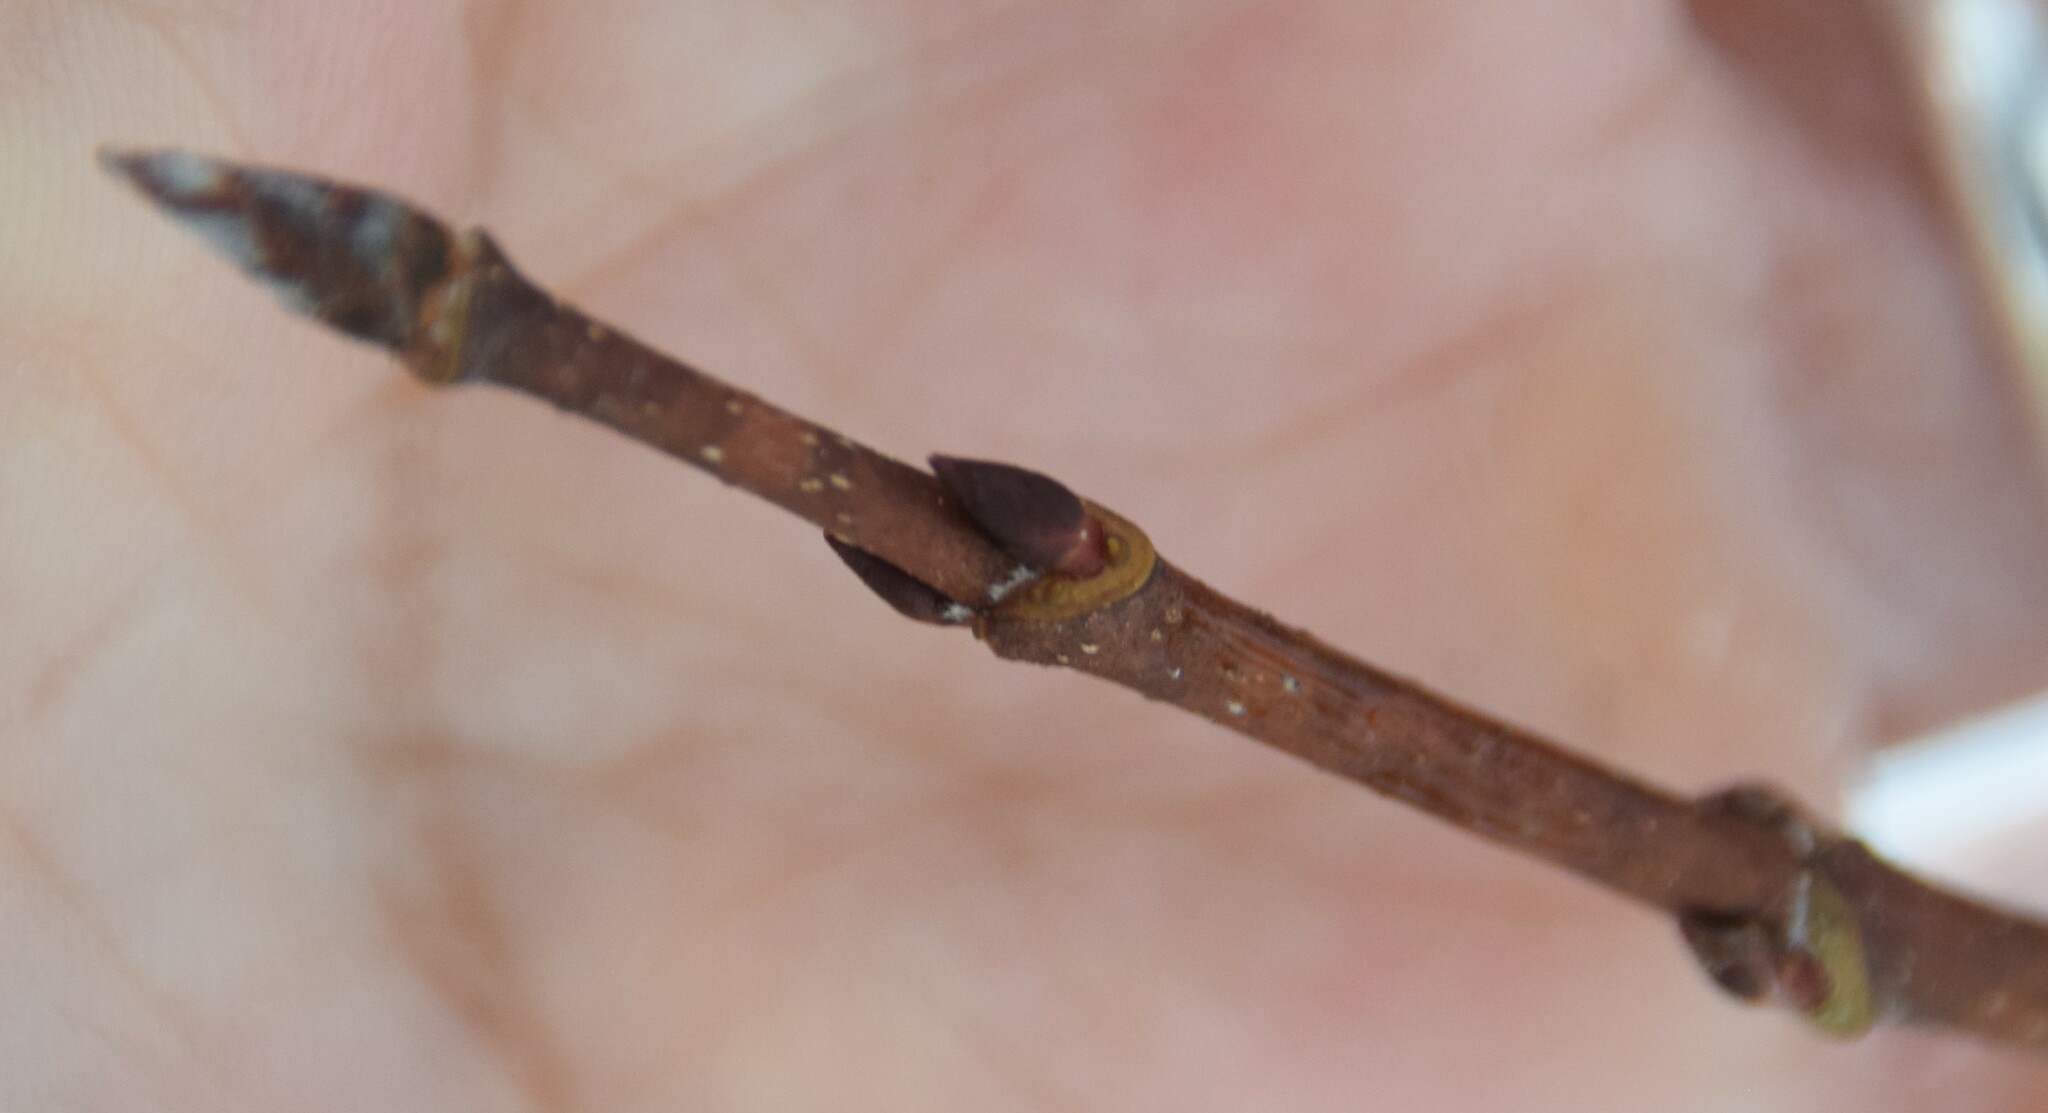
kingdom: Plantae
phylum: Tracheophyta
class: Magnoliopsida
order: Sapindales
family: Sapindaceae
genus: Acer
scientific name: Acer saccharum
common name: Sugar maple
